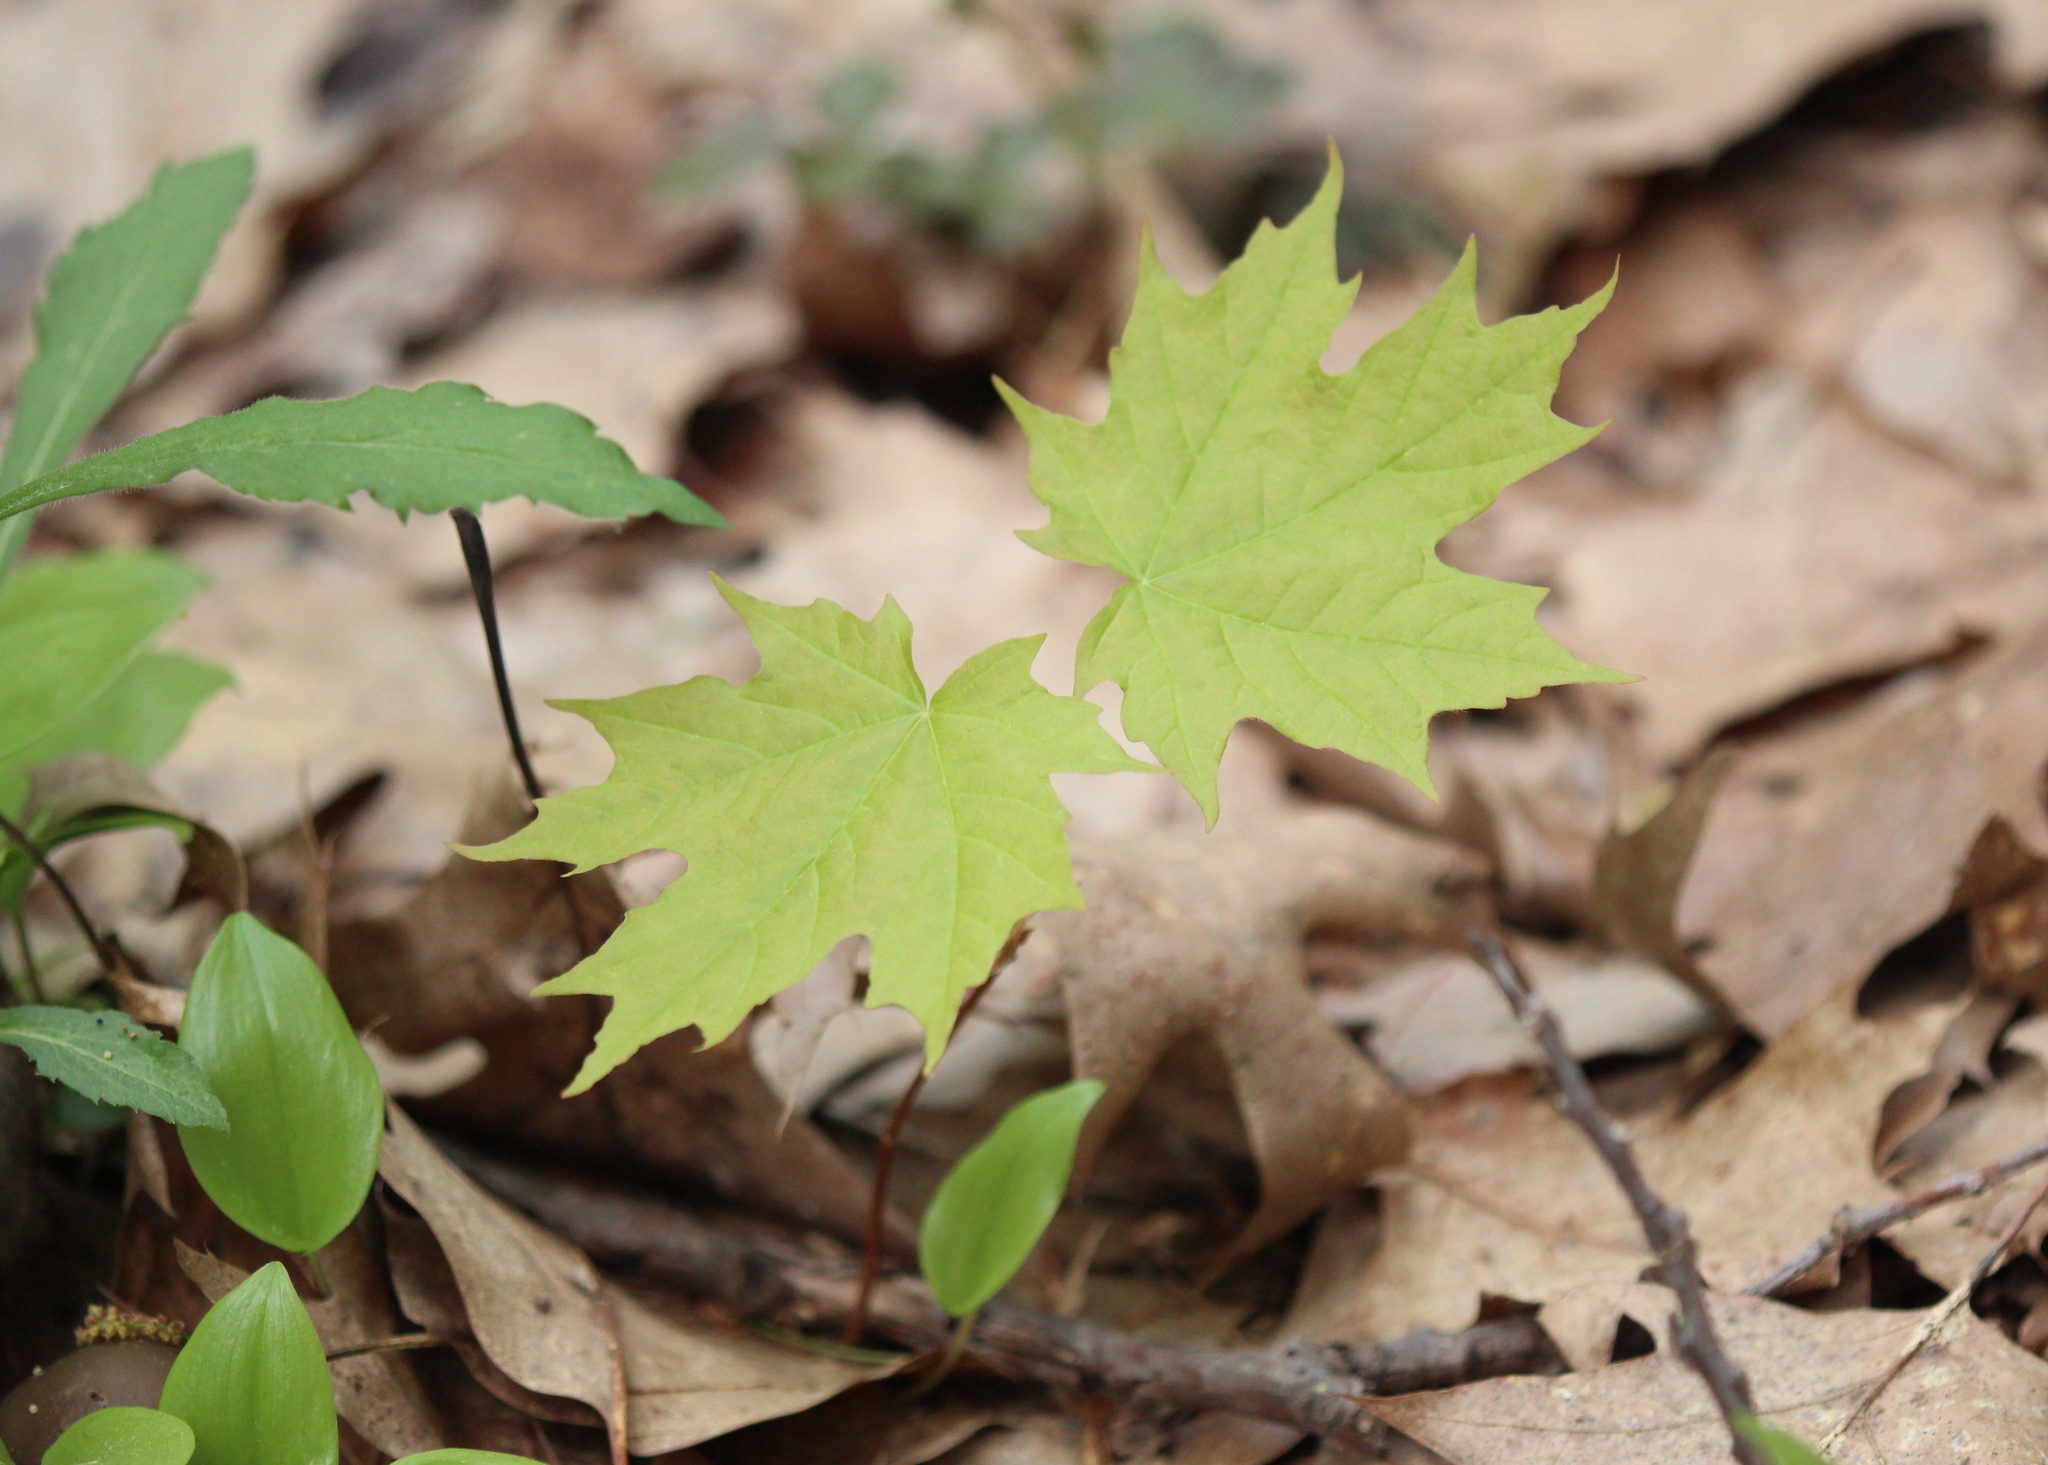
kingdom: Plantae
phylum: Tracheophyta
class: Magnoliopsida
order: Sapindales
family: Sapindaceae
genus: Acer
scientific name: Acer saccharum
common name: Sugar maple
